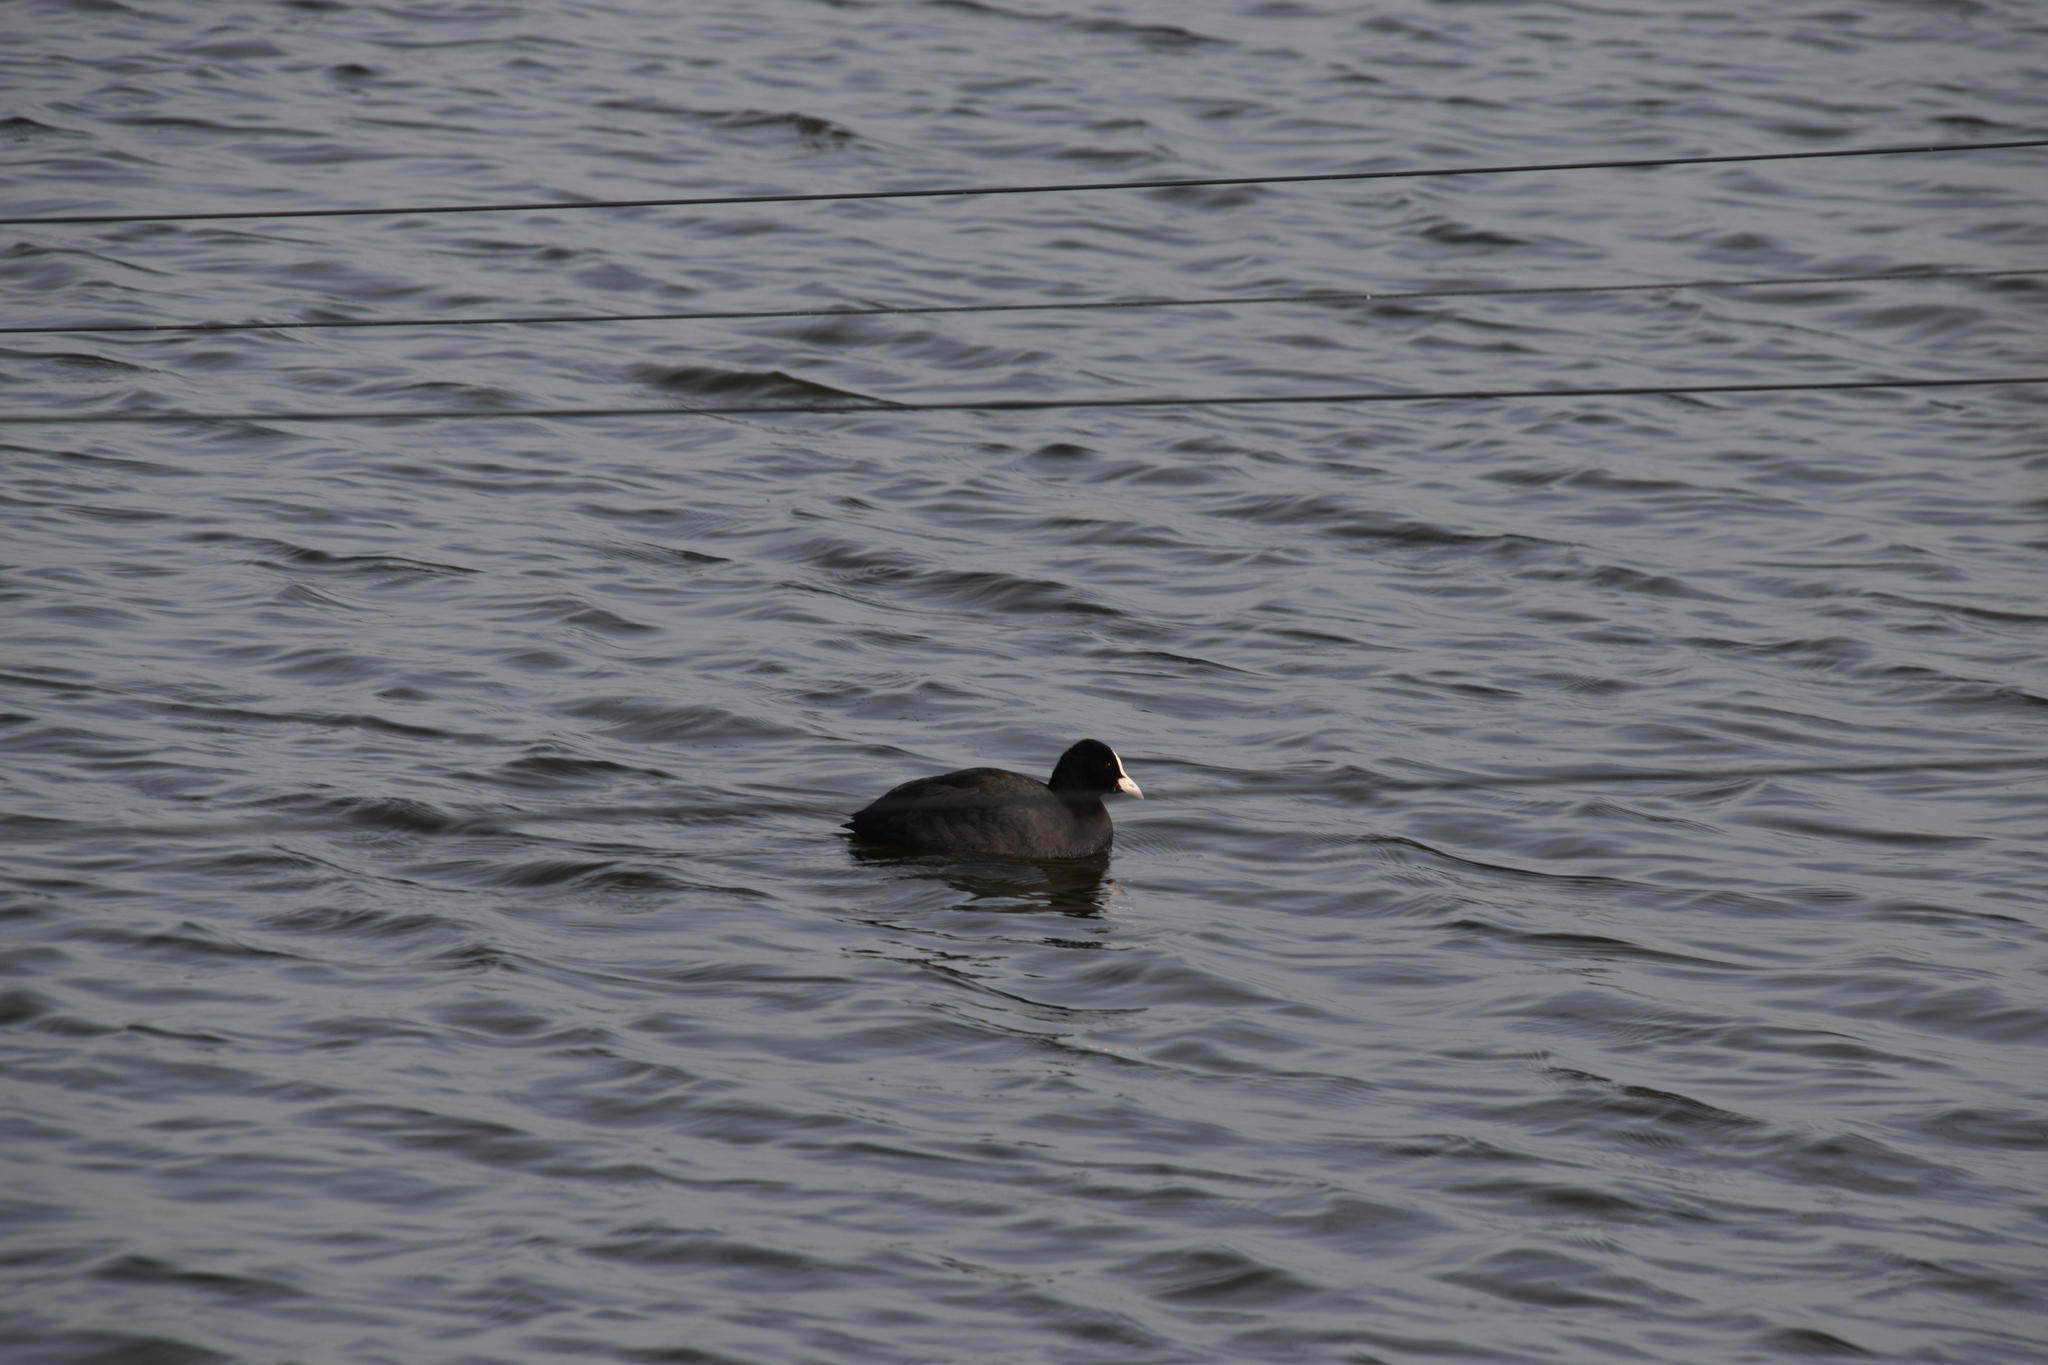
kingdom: Animalia
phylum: Chordata
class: Aves
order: Gruiformes
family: Rallidae
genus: Fulica
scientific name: Fulica atra
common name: Eurasian coot
